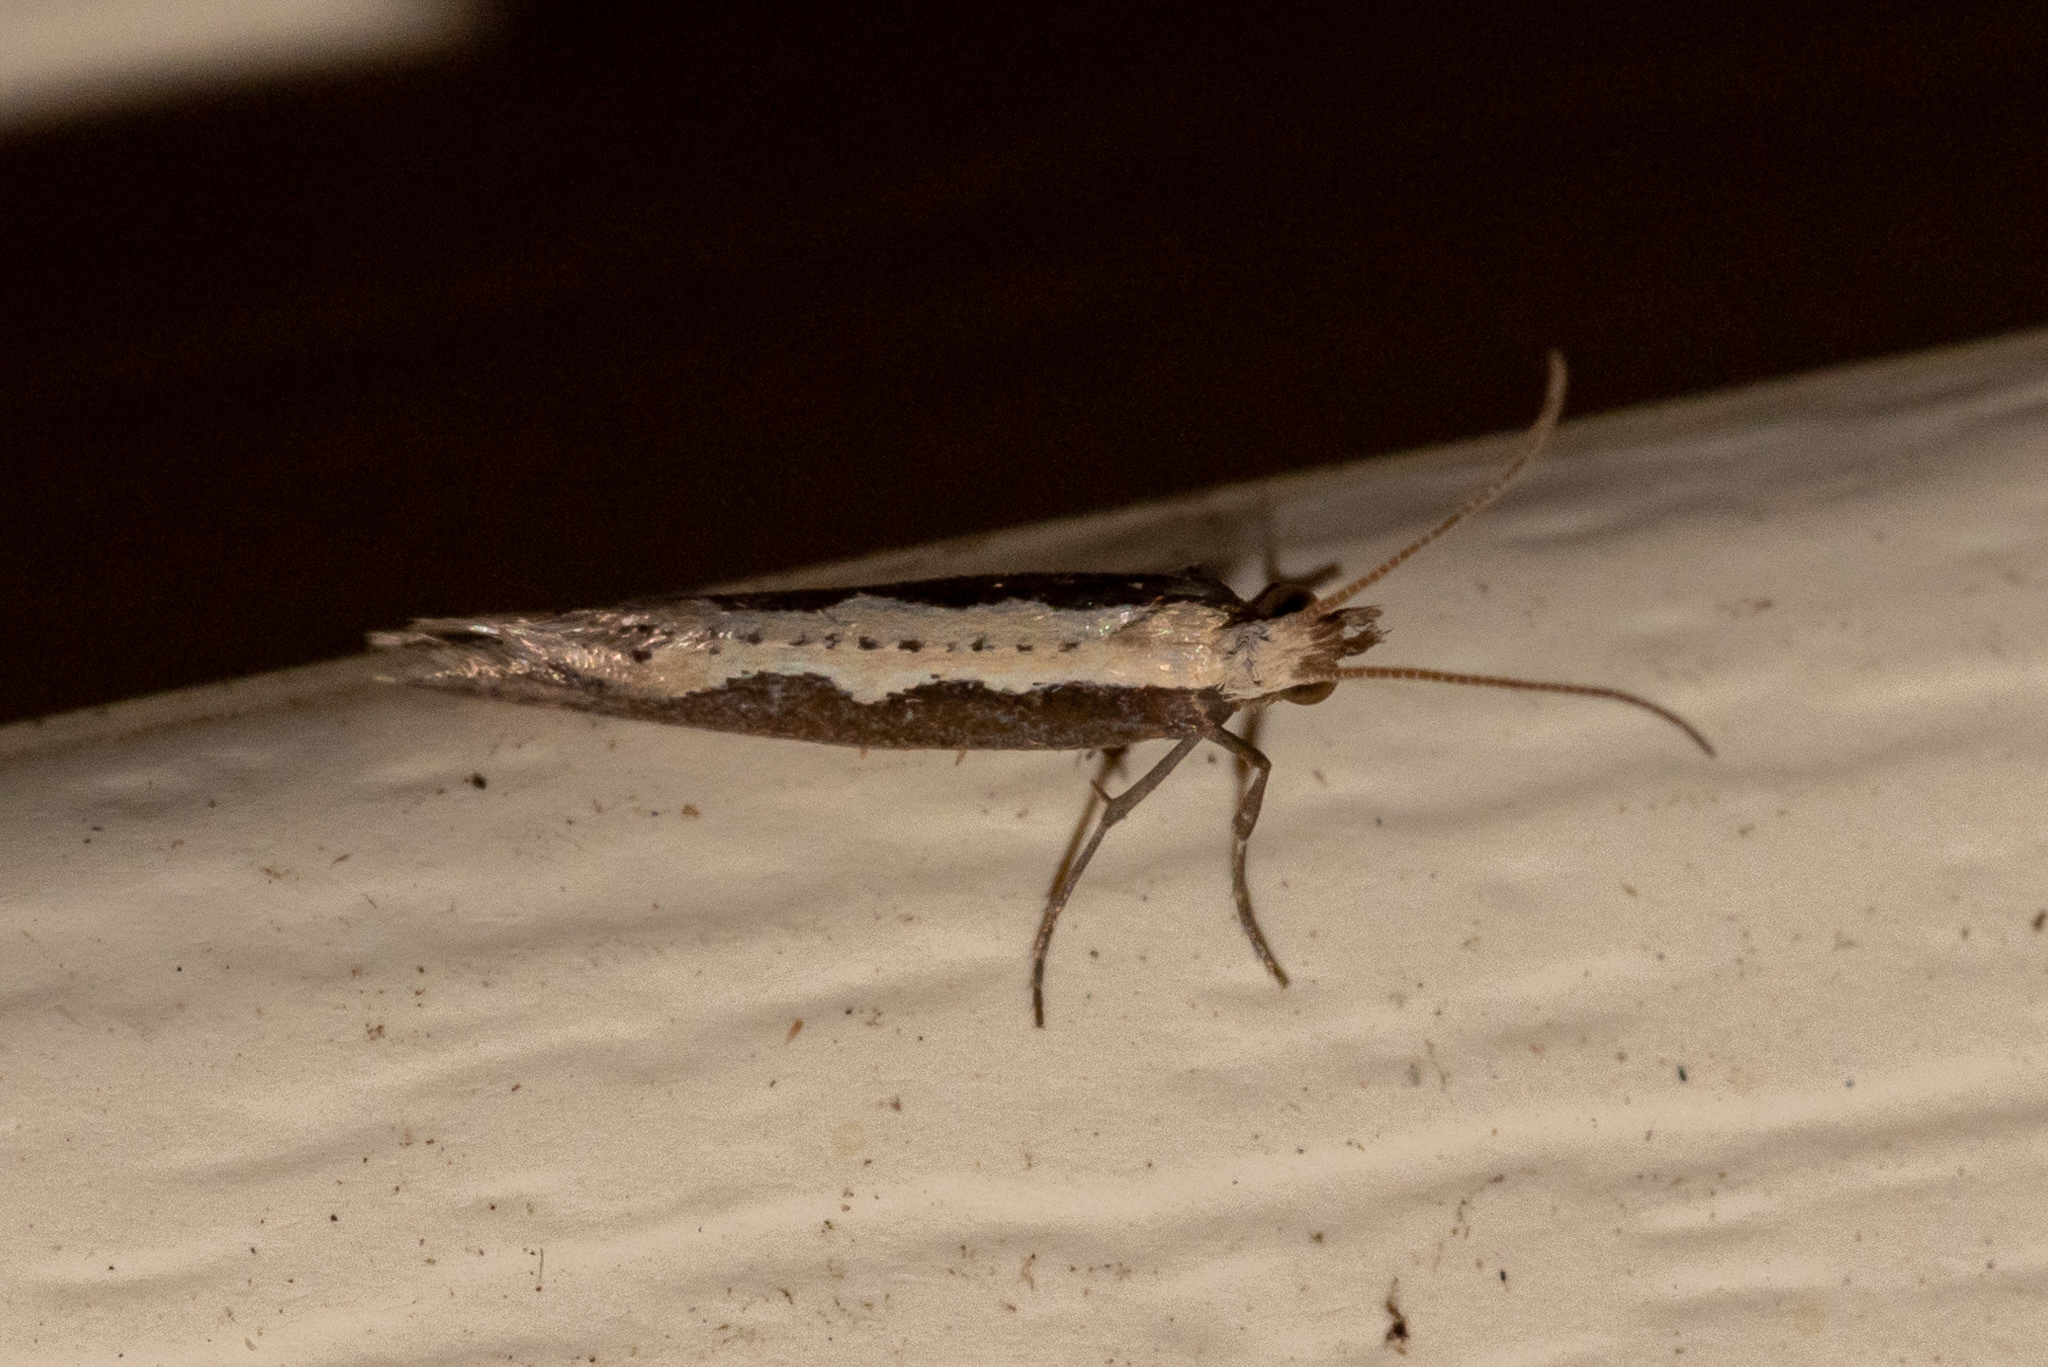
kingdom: Animalia
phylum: Arthropoda
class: Insecta
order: Lepidoptera
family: Plutellidae
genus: Plutella
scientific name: Plutella xylostella
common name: Diamond-back moth
